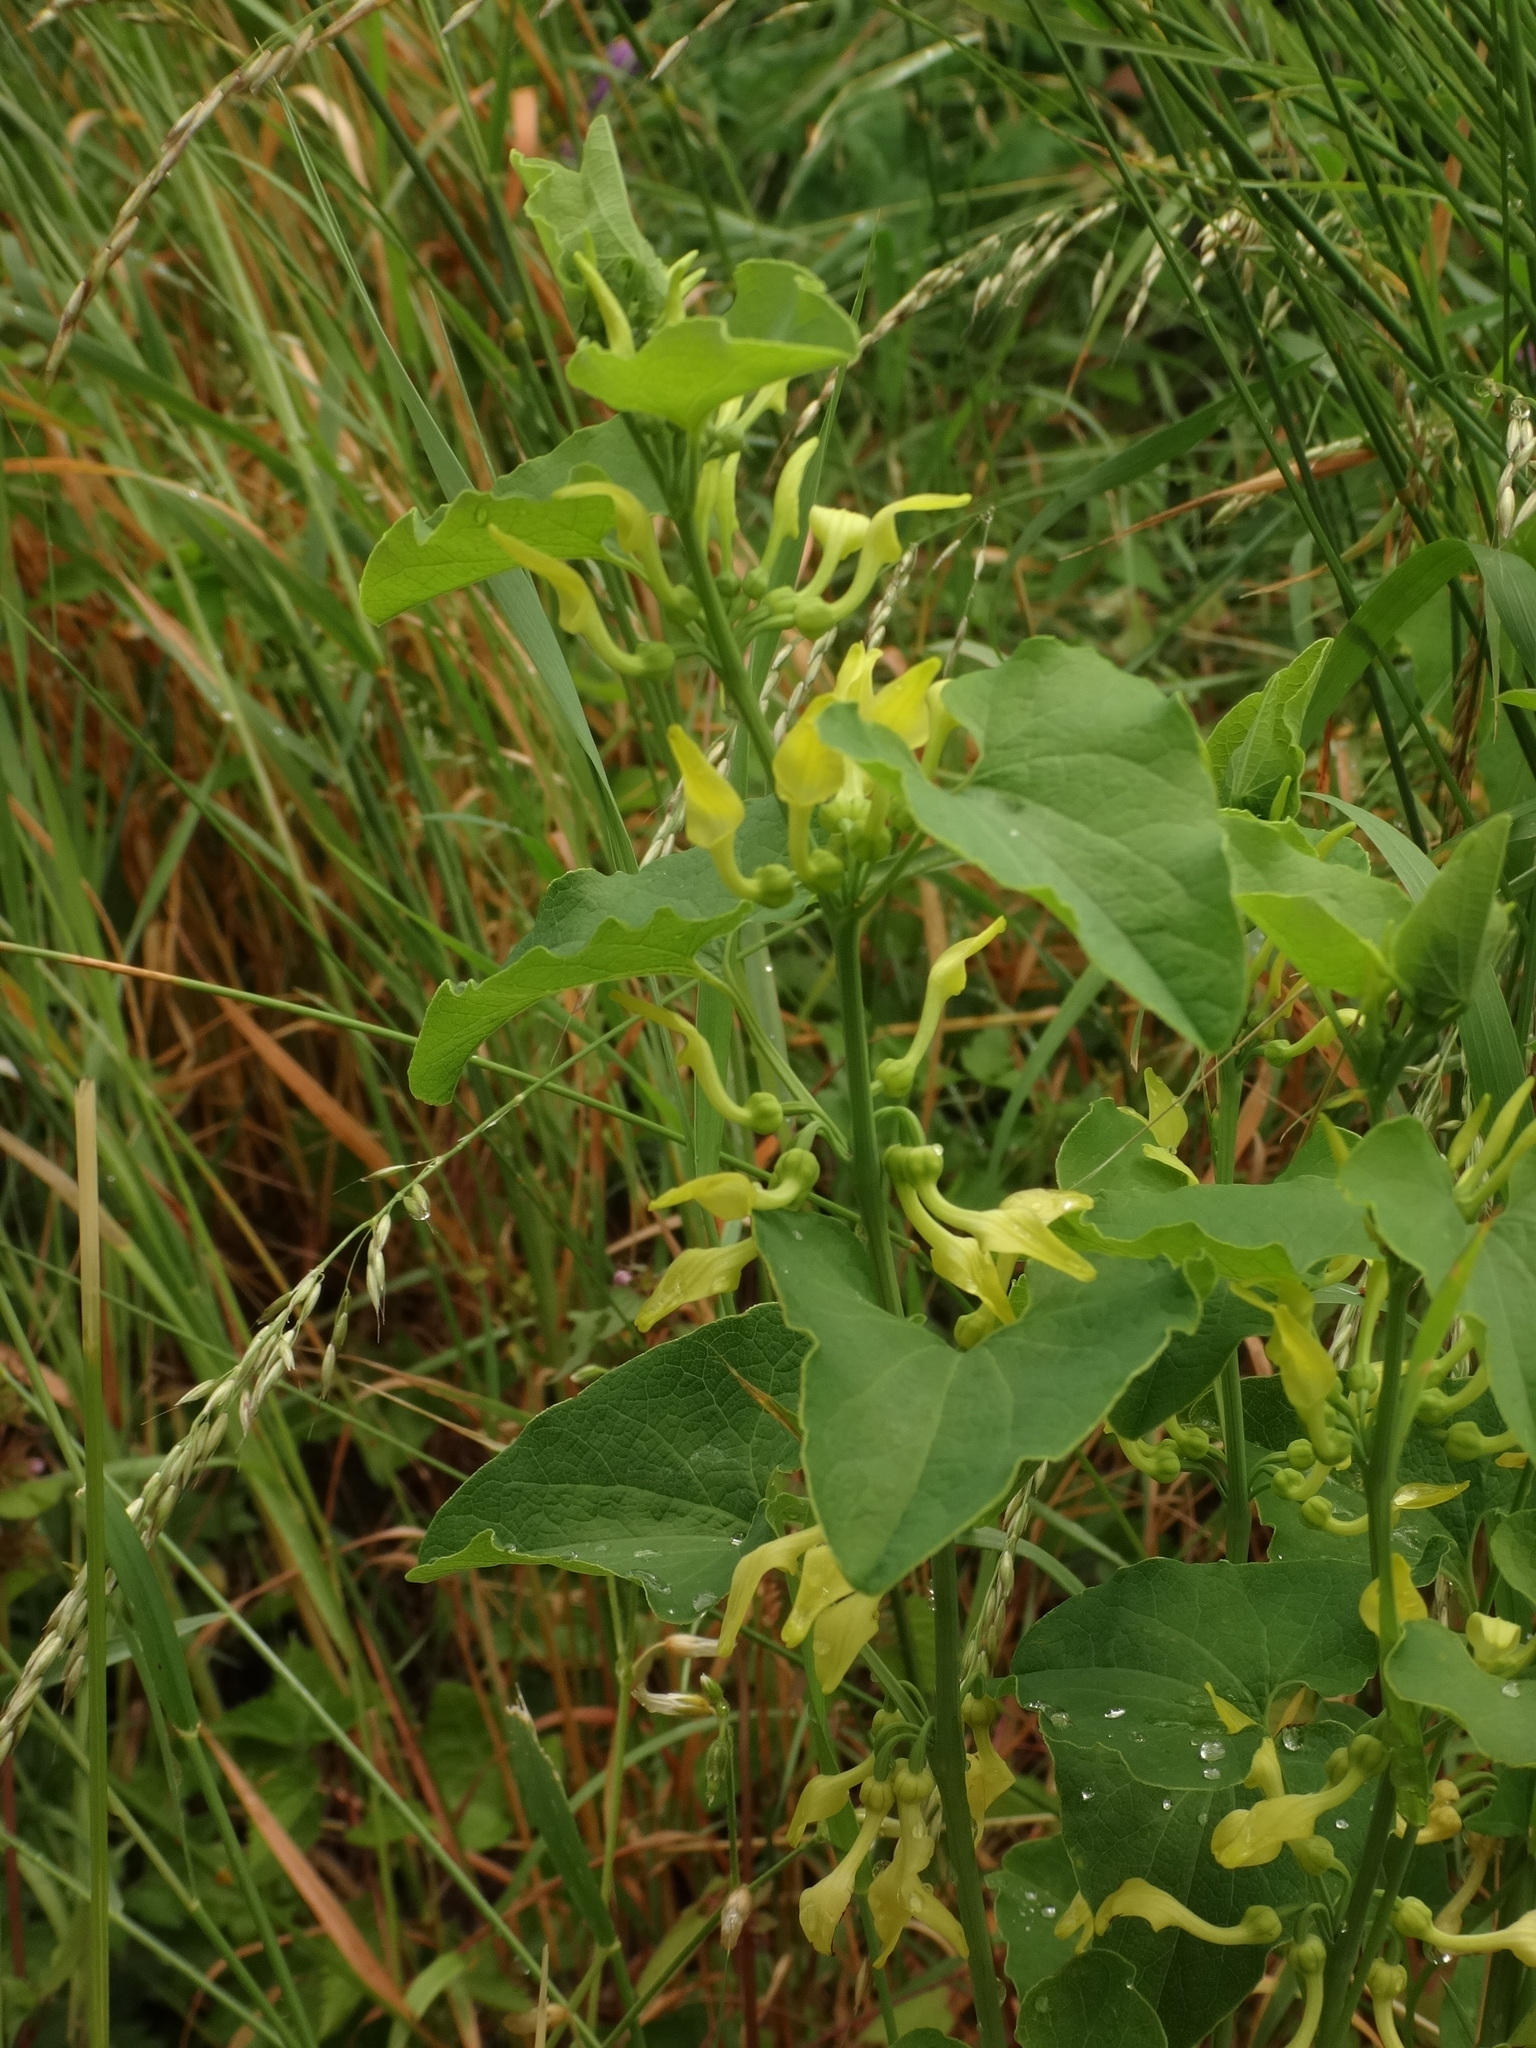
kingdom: Plantae
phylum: Tracheophyta
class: Magnoliopsida
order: Piperales
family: Aristolochiaceae
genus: Aristolochia
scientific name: Aristolochia clematitis
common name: Birthwort
